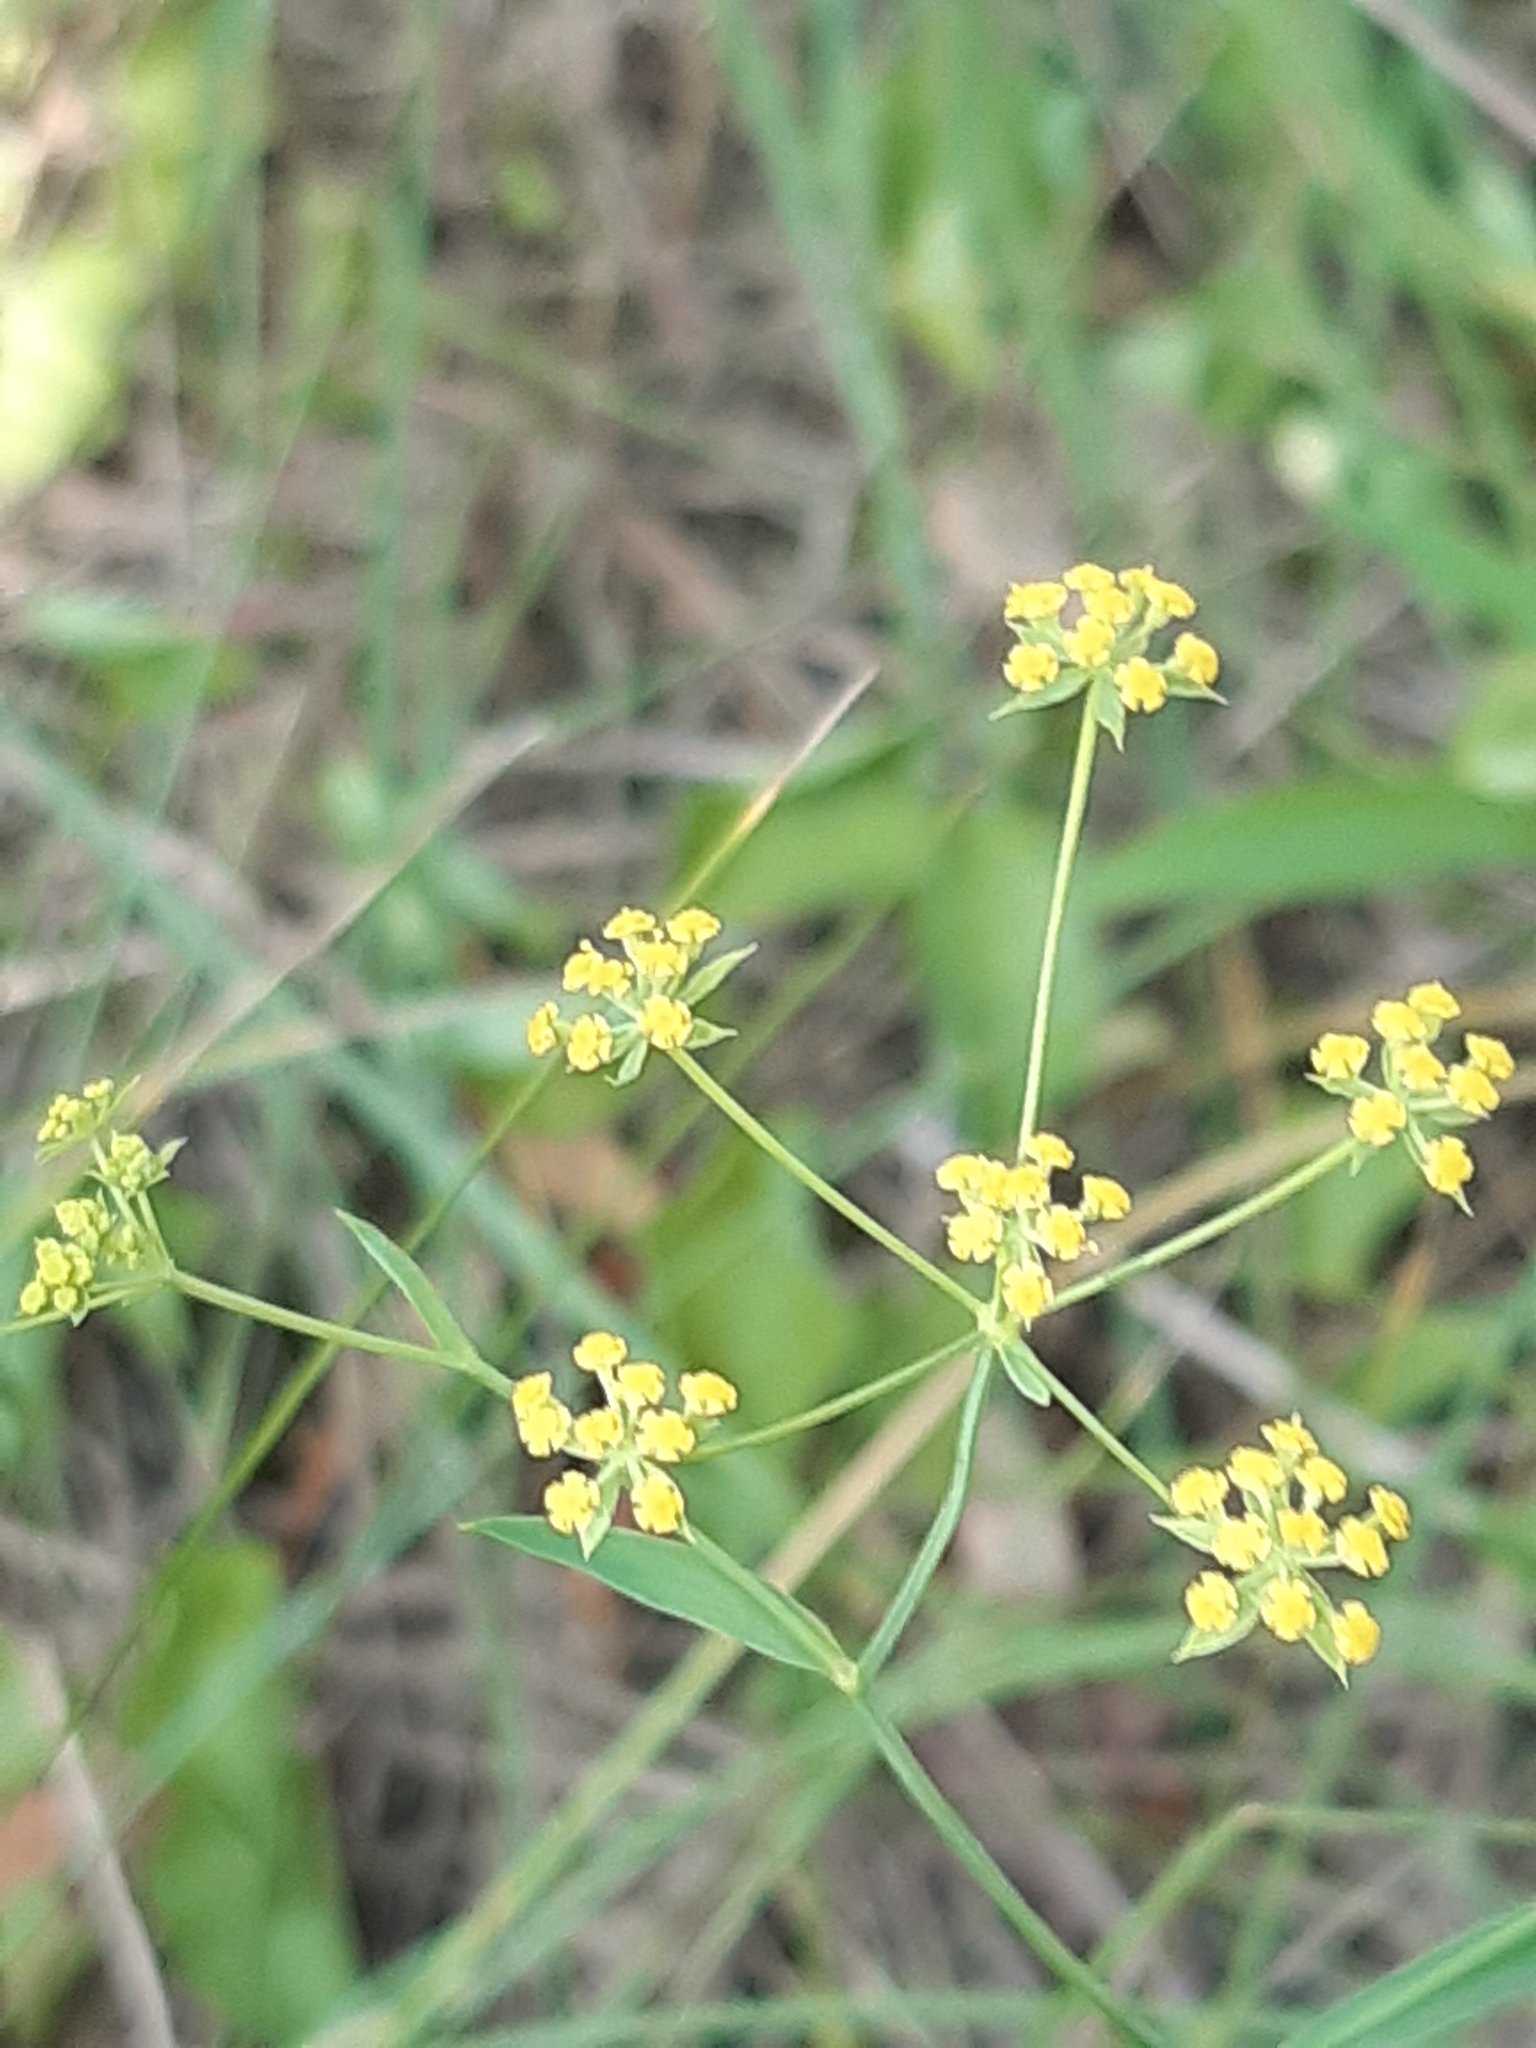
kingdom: Plantae
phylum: Tracheophyta
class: Magnoliopsida
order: Apiales
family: Apiaceae
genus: Bupleurum
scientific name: Bupleurum falcatum
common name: Sickle-leaved hare's-ear
